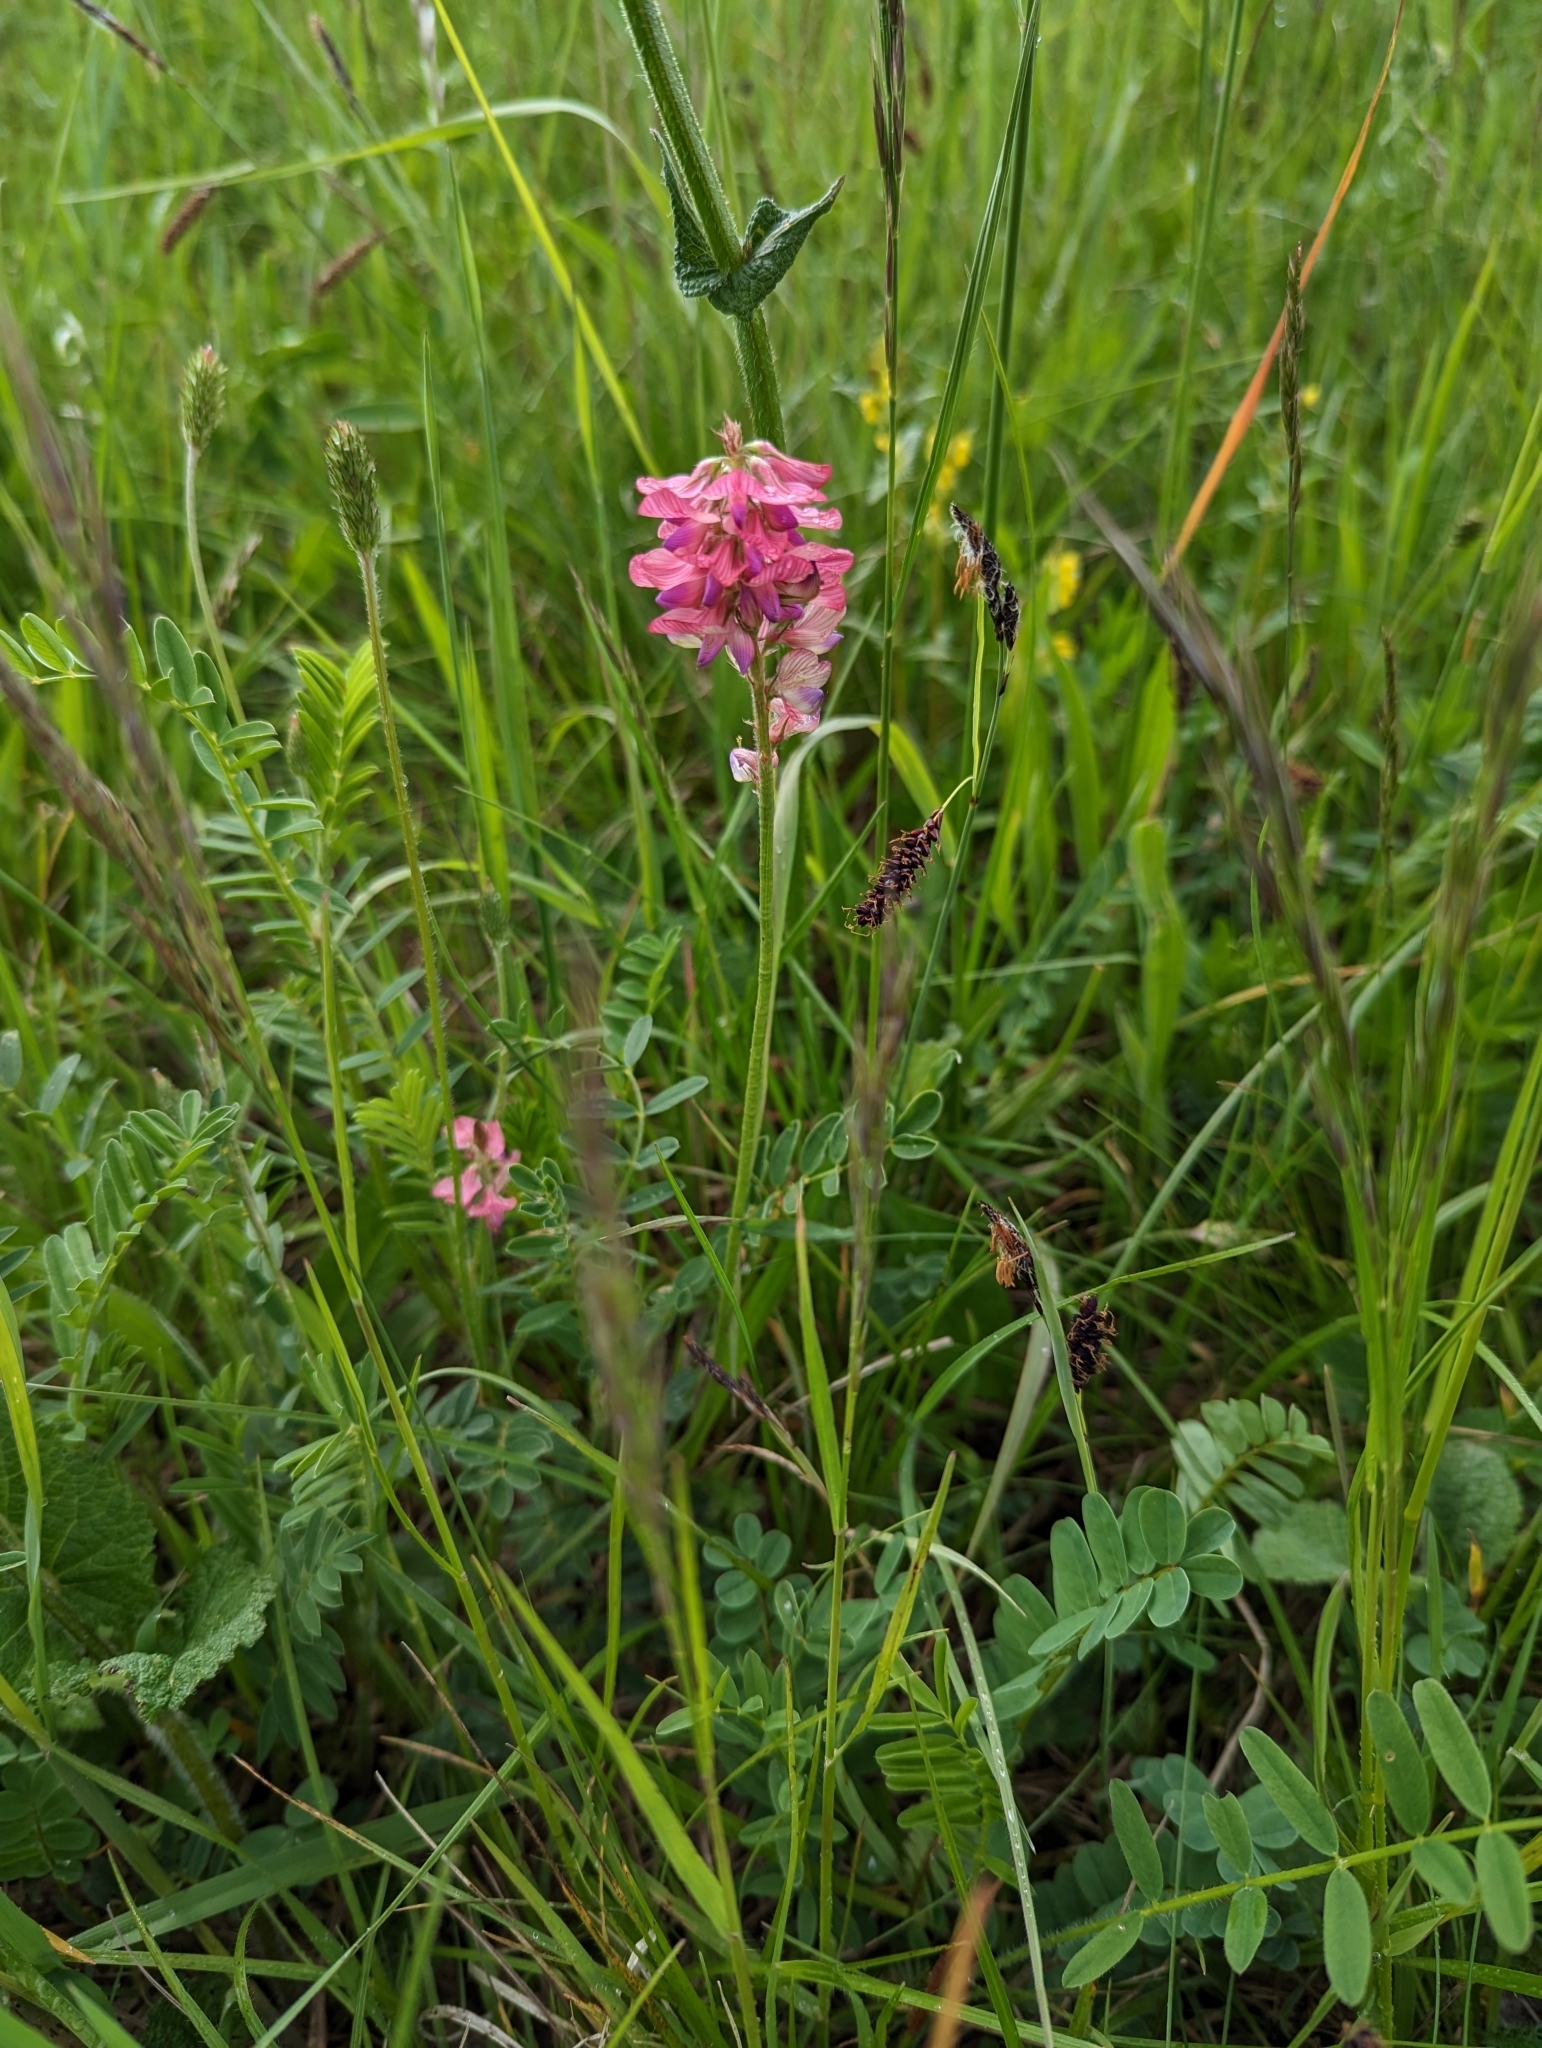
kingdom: Plantae
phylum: Tracheophyta
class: Magnoliopsida
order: Fabales
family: Fabaceae
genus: Onobrychis
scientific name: Onobrychis viciifolia
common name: Sainfoin
